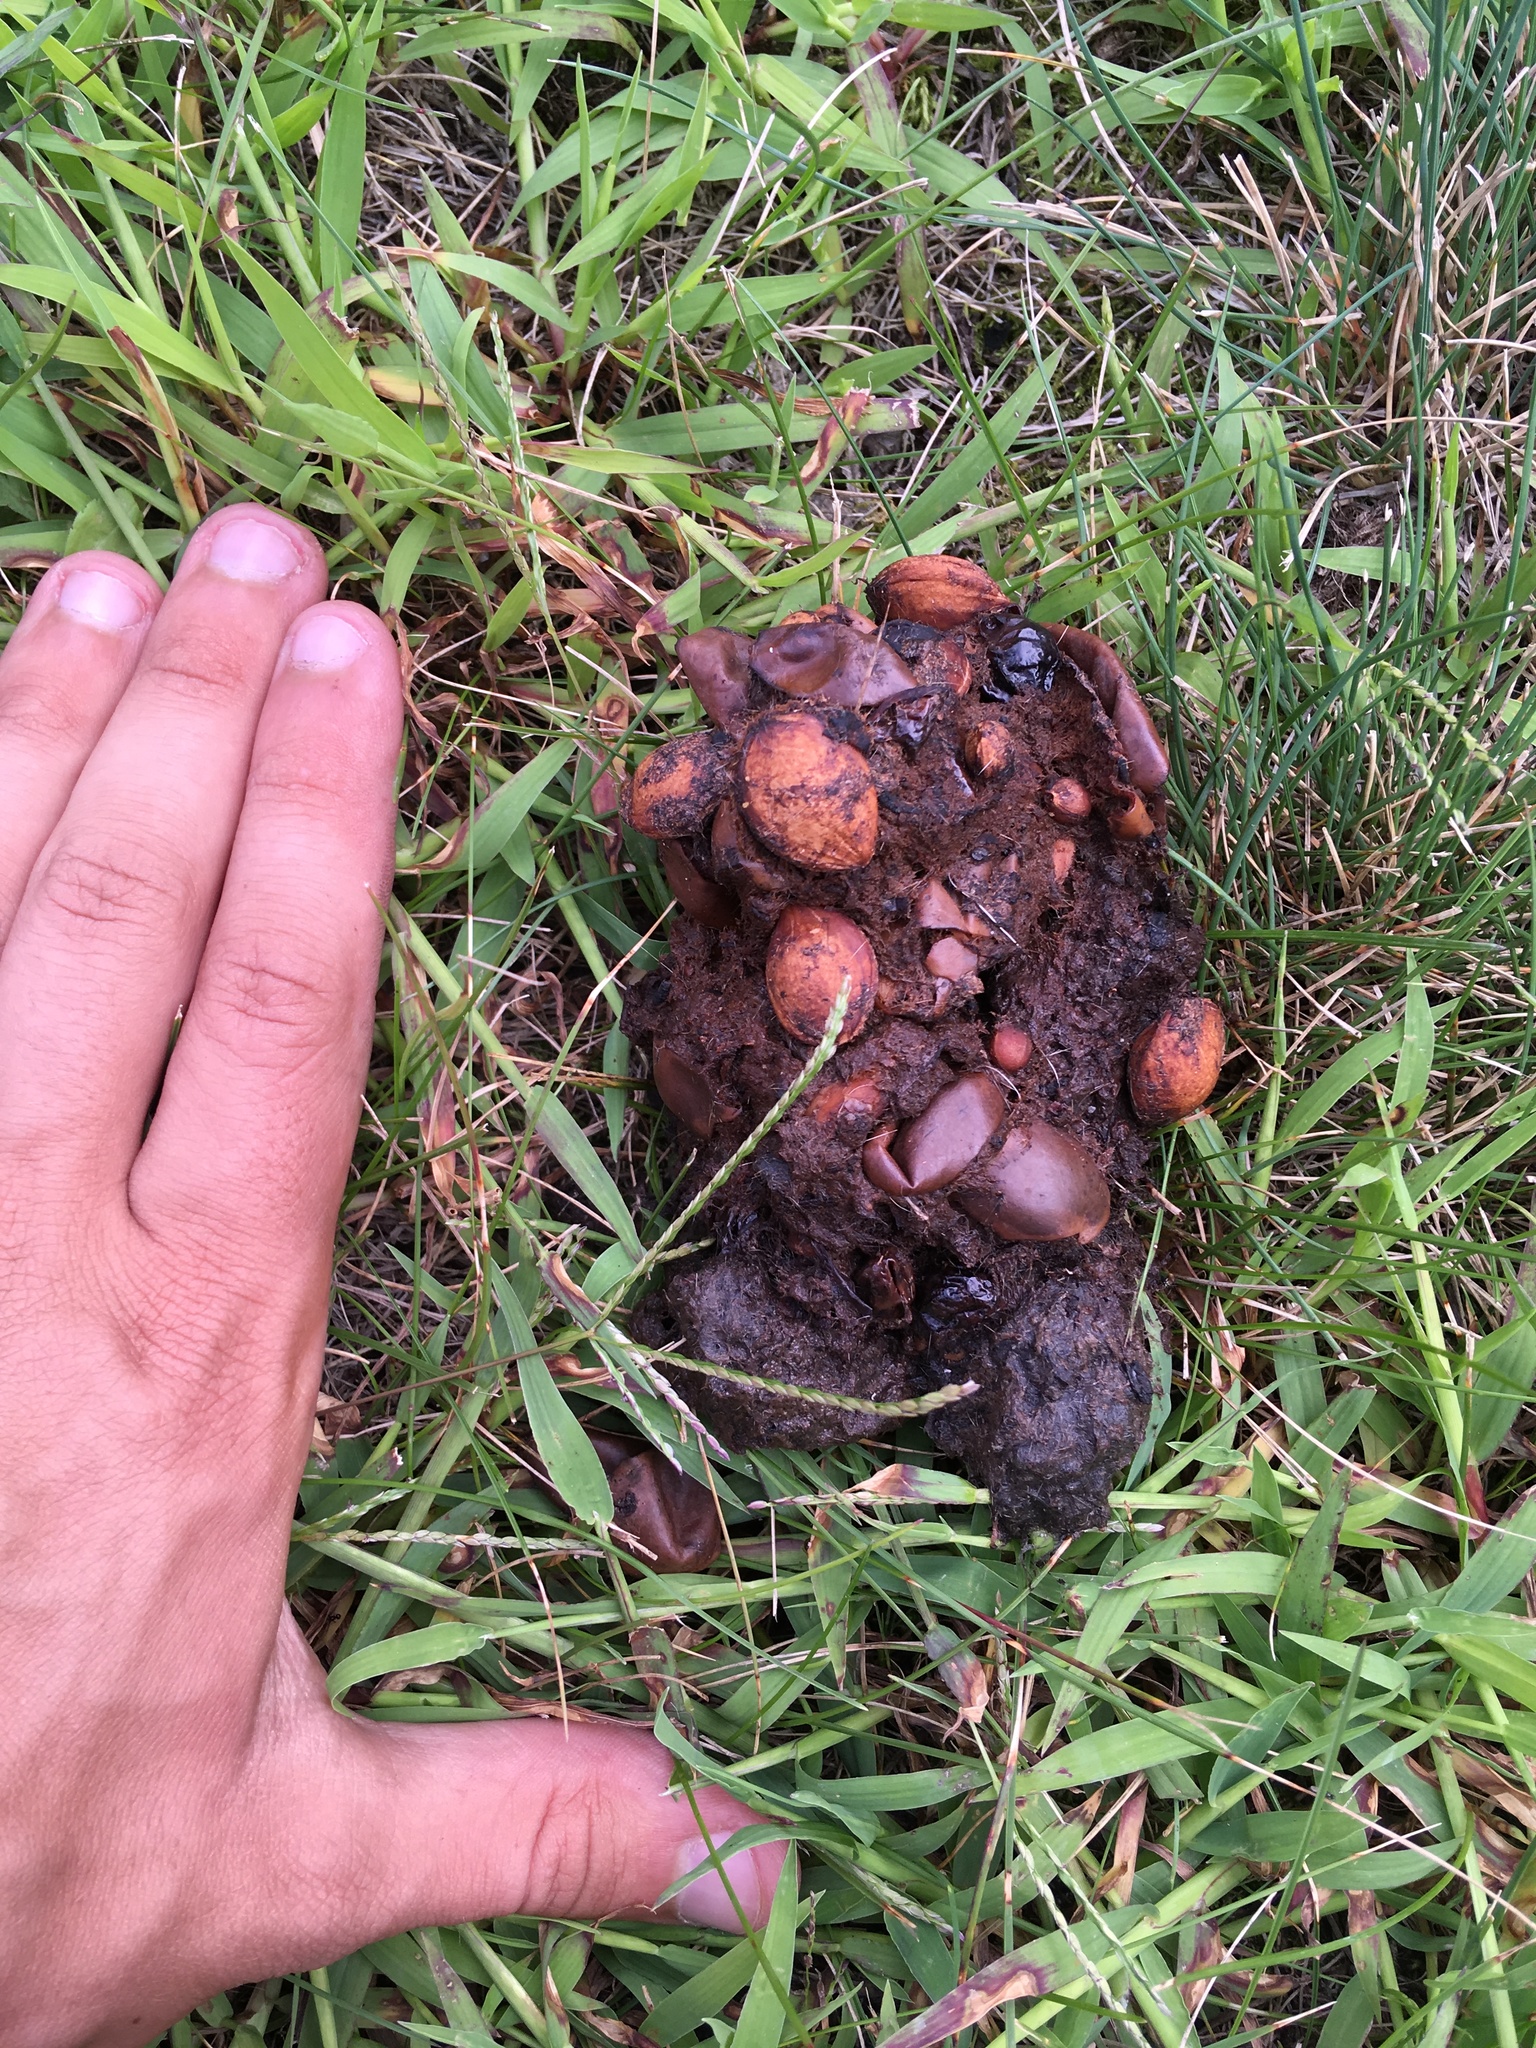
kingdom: Animalia
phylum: Chordata
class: Mammalia
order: Carnivora
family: Canidae
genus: Canis
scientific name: Canis latrans
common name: Coyote
